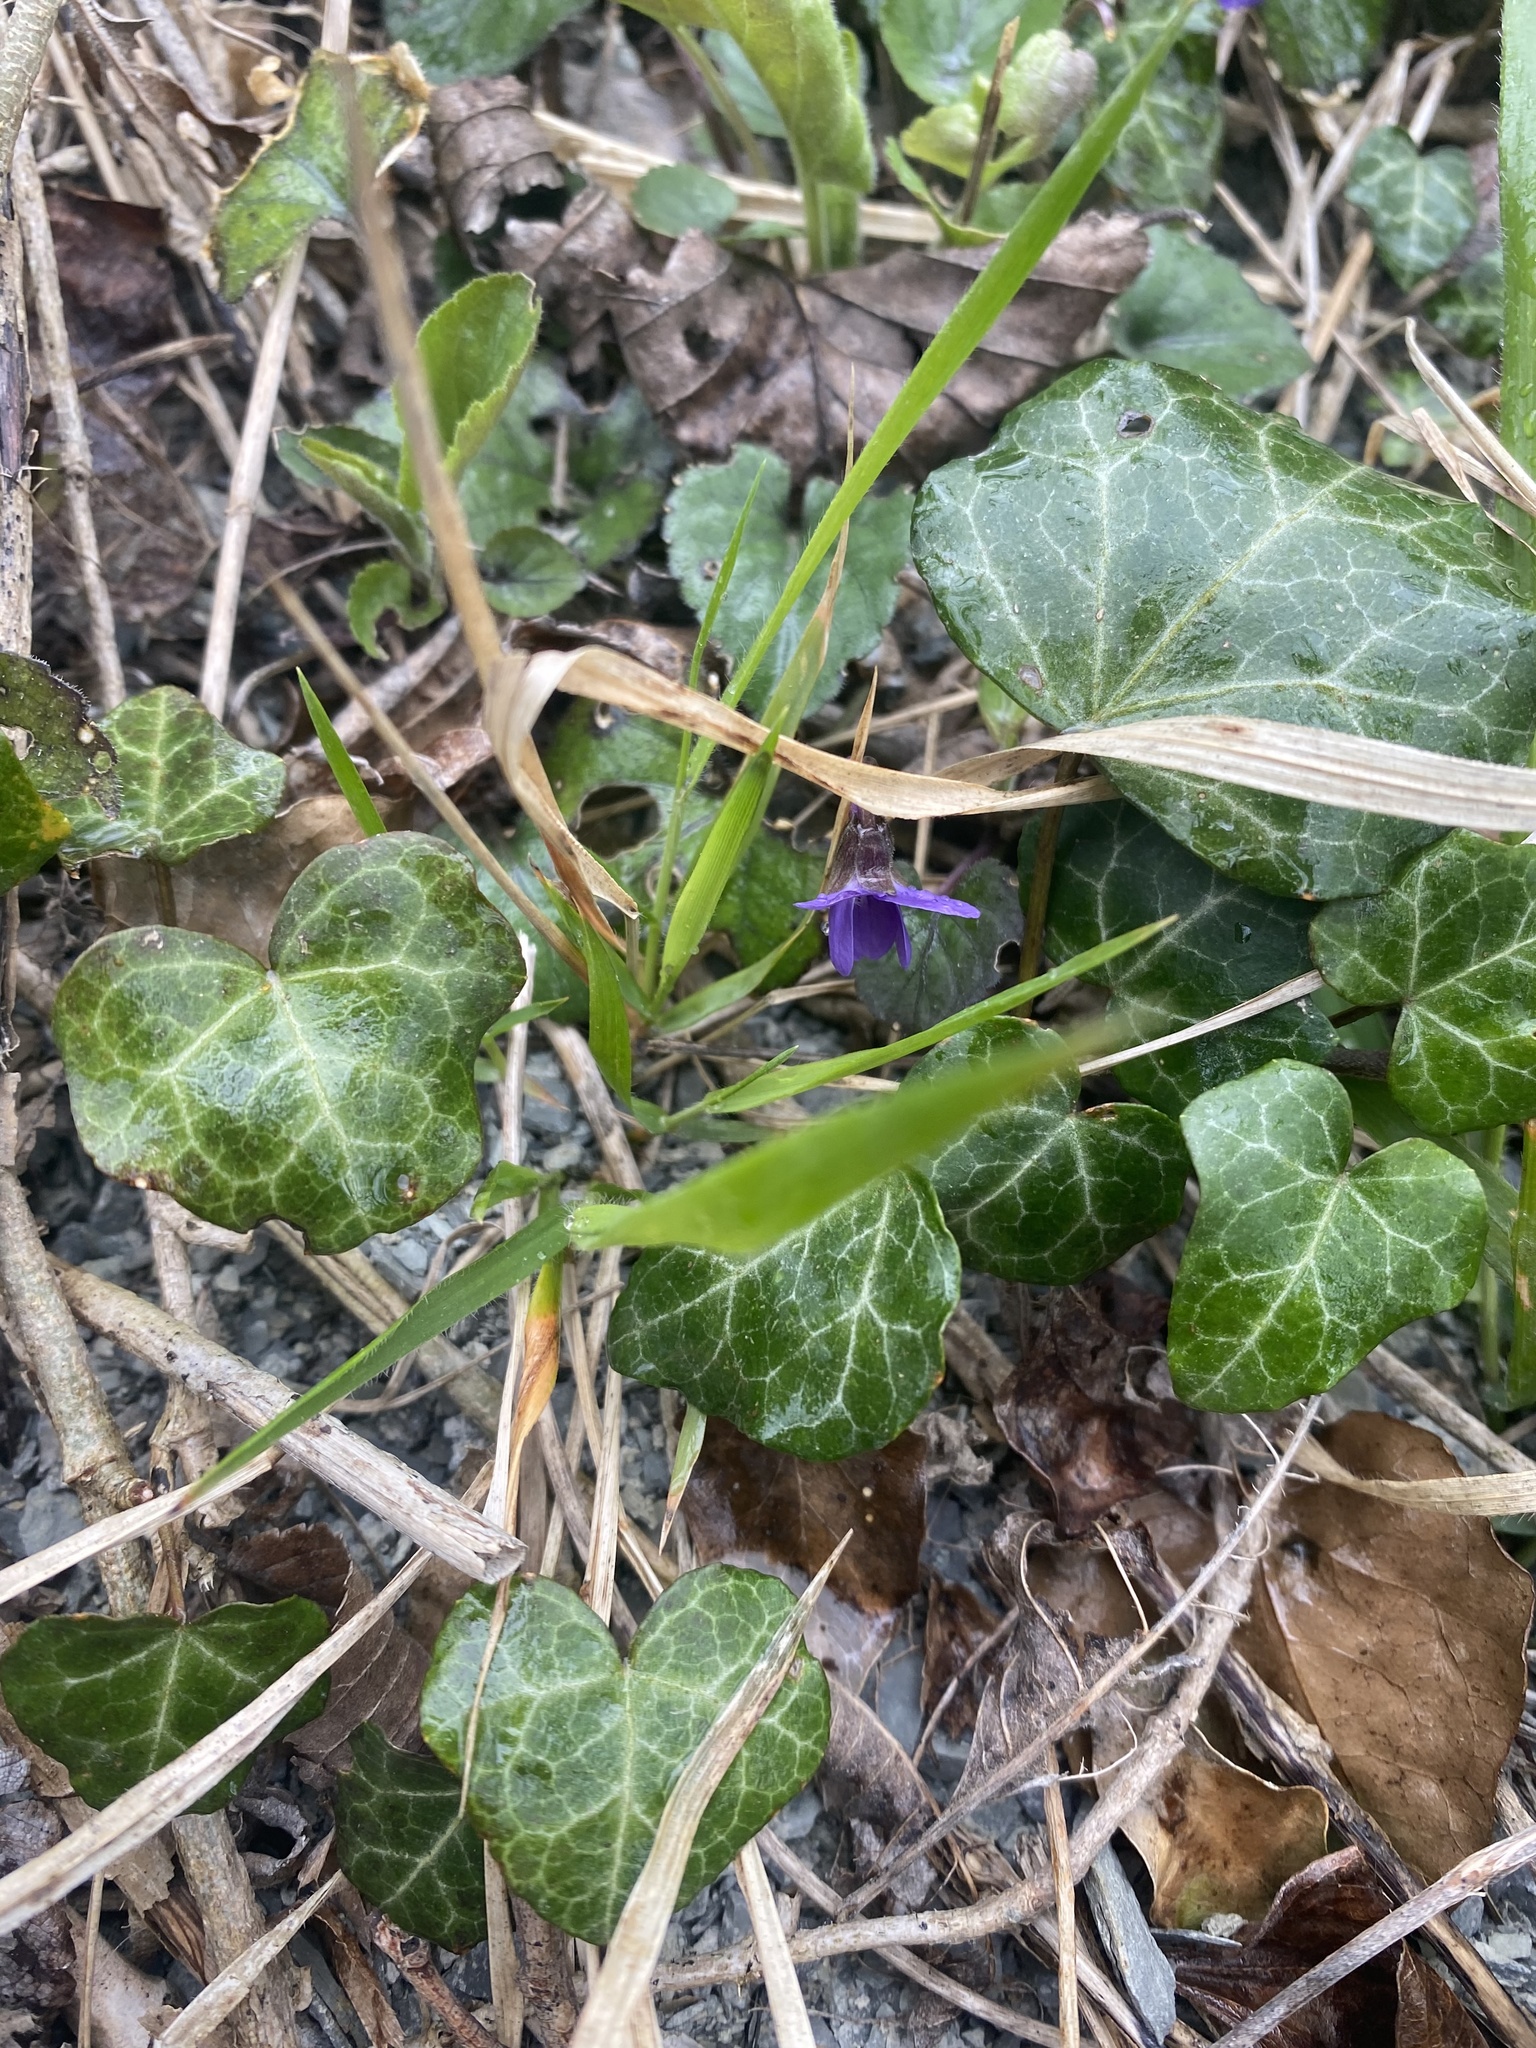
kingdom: Plantae
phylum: Tracheophyta
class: Magnoliopsida
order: Malpighiales
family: Violaceae
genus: Viola
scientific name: Viola alba
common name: White violet
